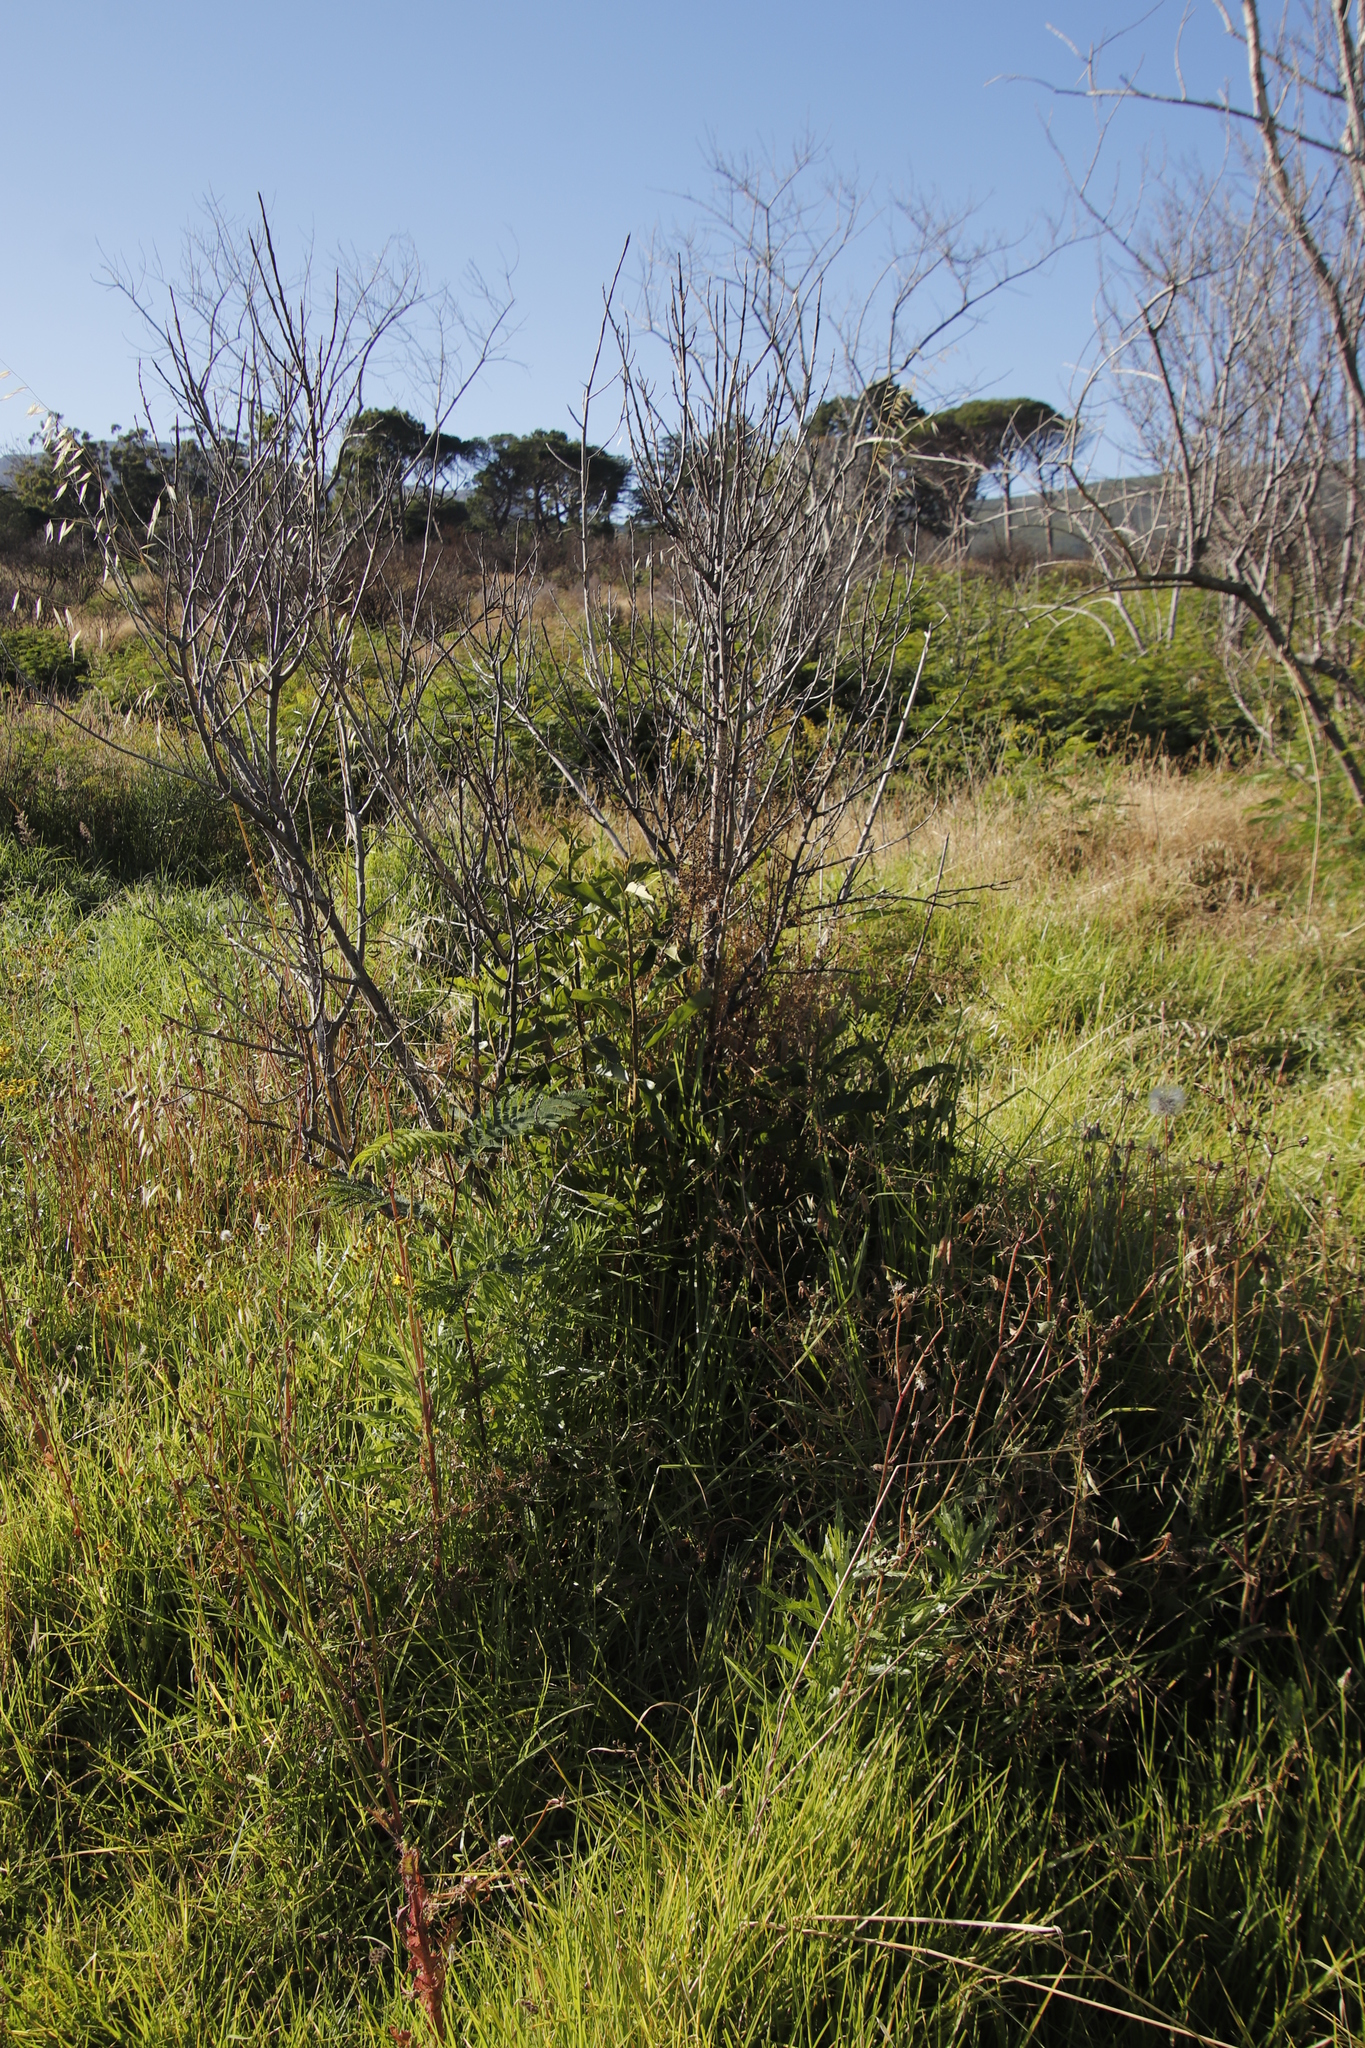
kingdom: Plantae
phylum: Tracheophyta
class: Magnoliopsida
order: Malpighiales
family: Achariaceae
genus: Kiggelaria
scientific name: Kiggelaria africana
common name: Wild peach
